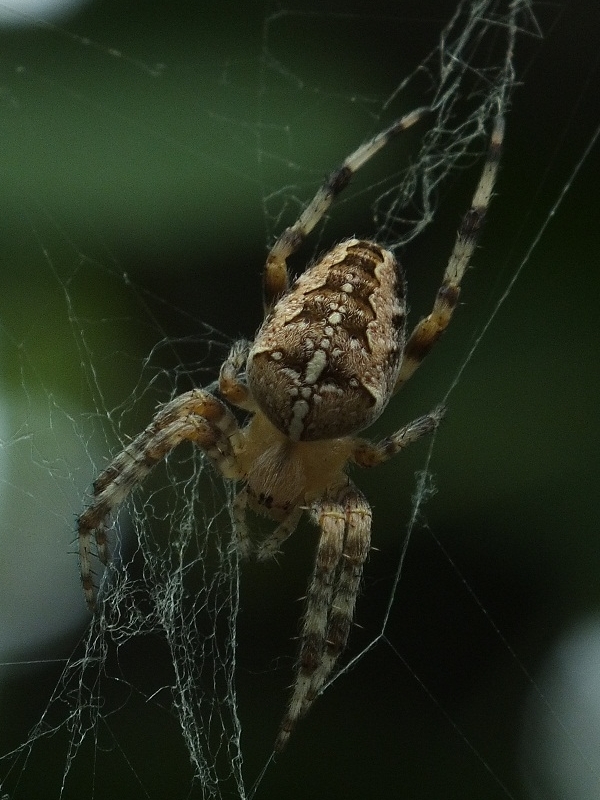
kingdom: Animalia
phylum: Arthropoda
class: Arachnida
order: Araneae
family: Araneidae
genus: Araneus
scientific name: Araneus diadematus
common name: Cross orbweaver
